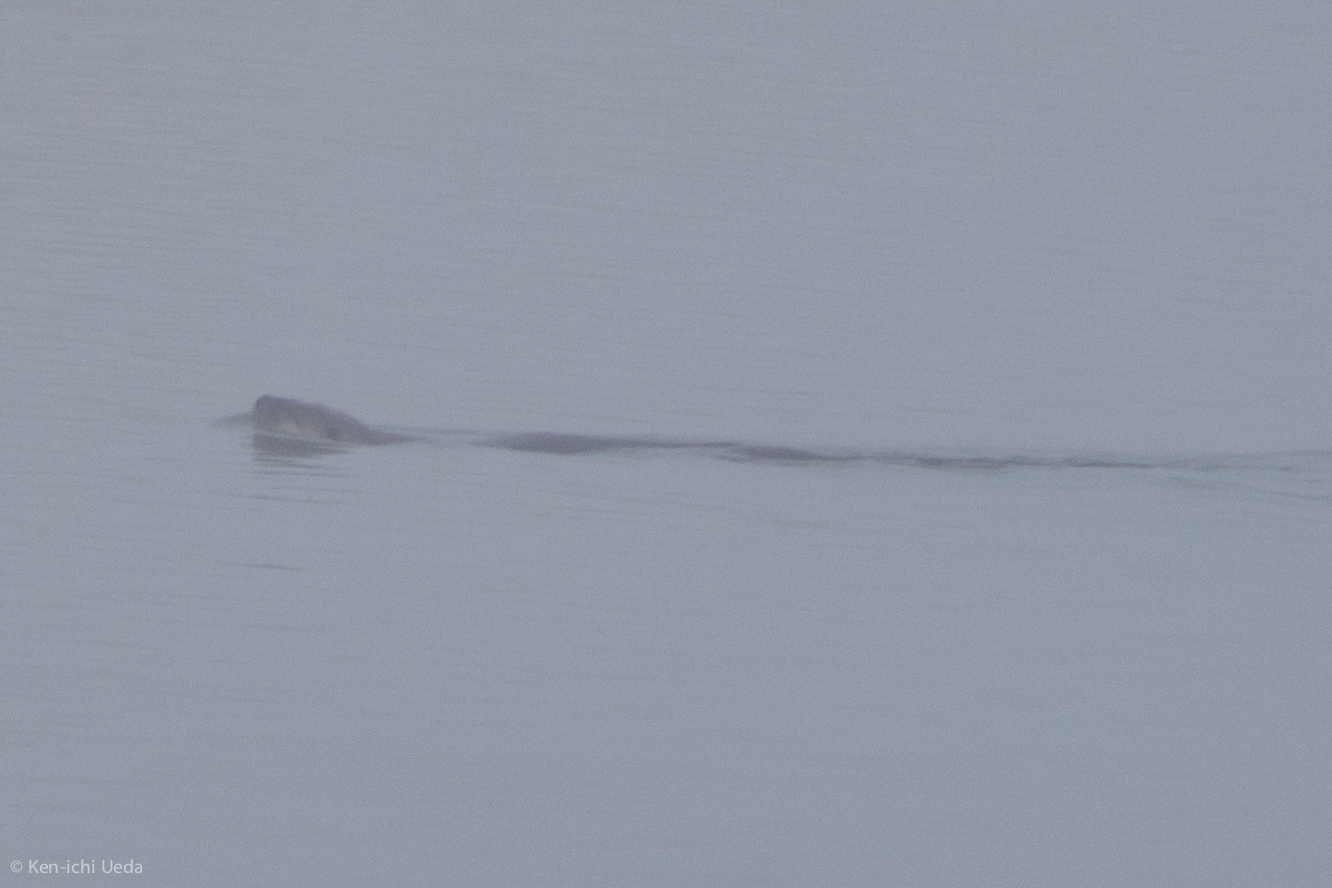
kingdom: Animalia
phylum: Chordata
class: Mammalia
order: Carnivora
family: Mustelidae
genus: Lontra
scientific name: Lontra canadensis
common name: North american river otter
